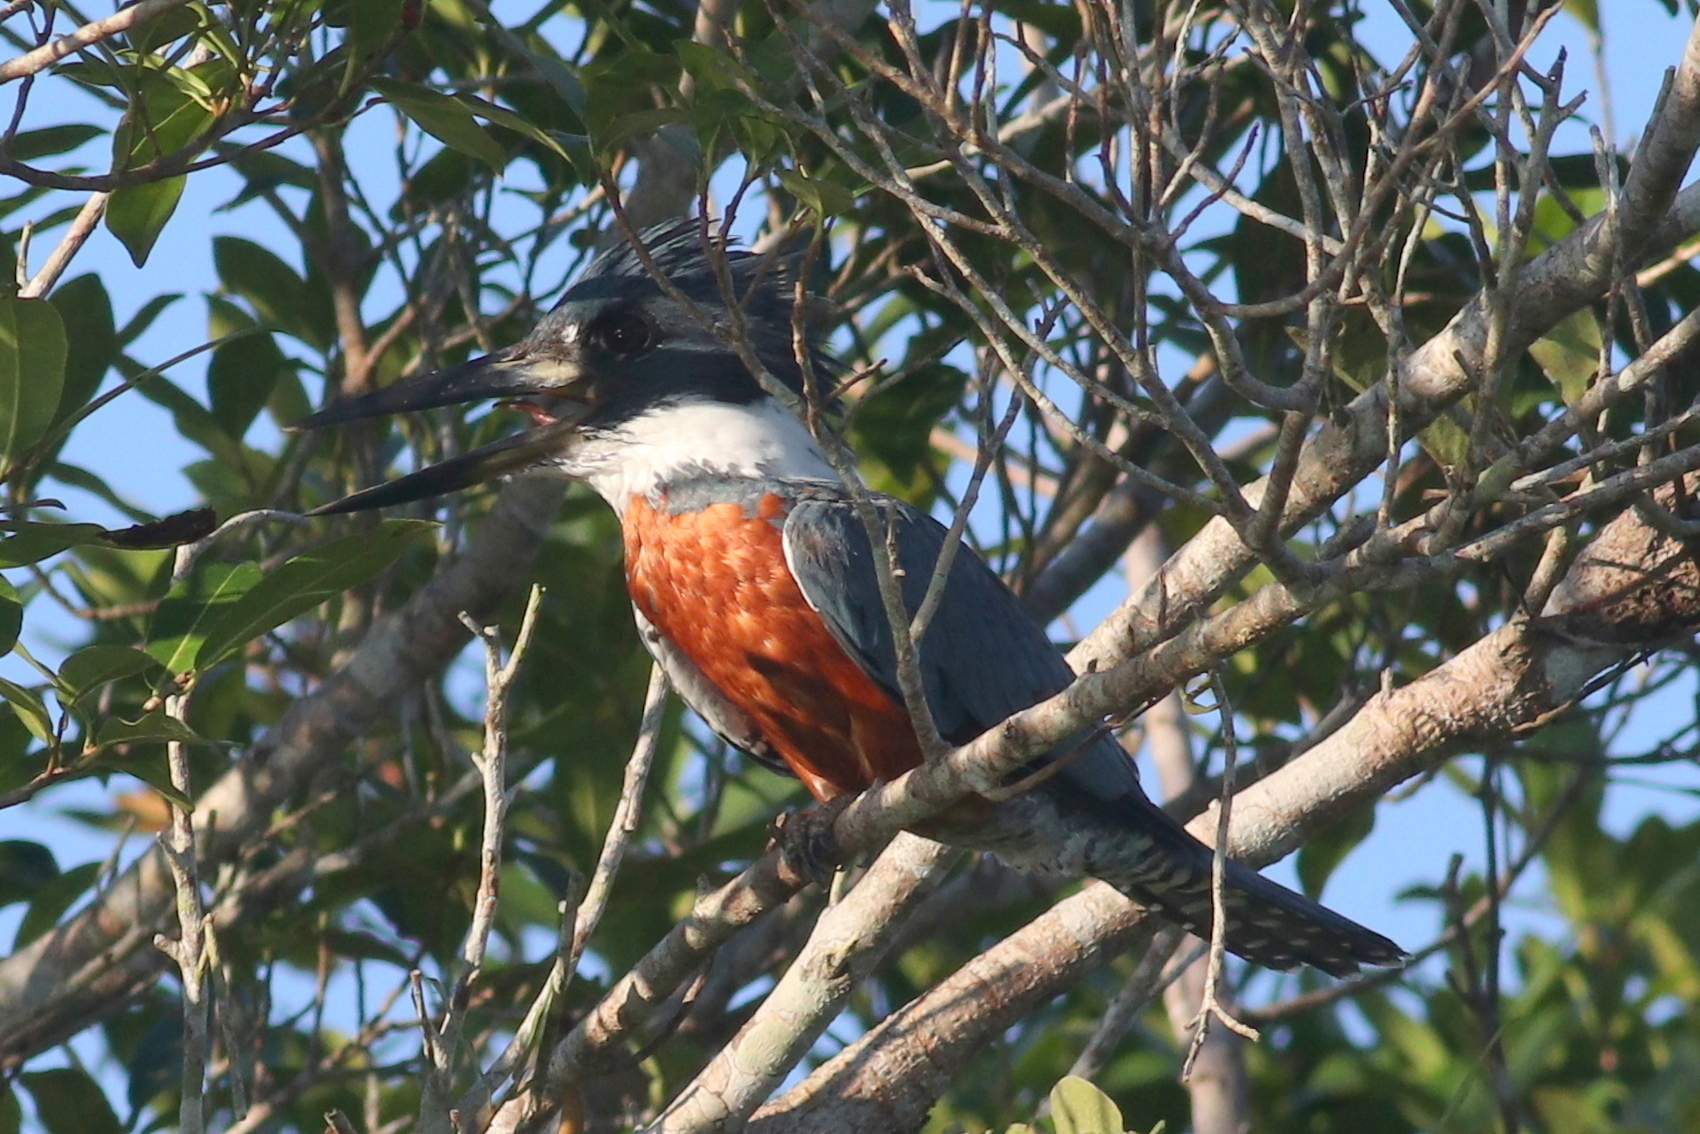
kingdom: Animalia
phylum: Chordata
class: Aves
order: Coraciiformes
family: Alcedinidae
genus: Megaceryle
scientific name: Megaceryle torquata
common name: Ringed kingfisher
